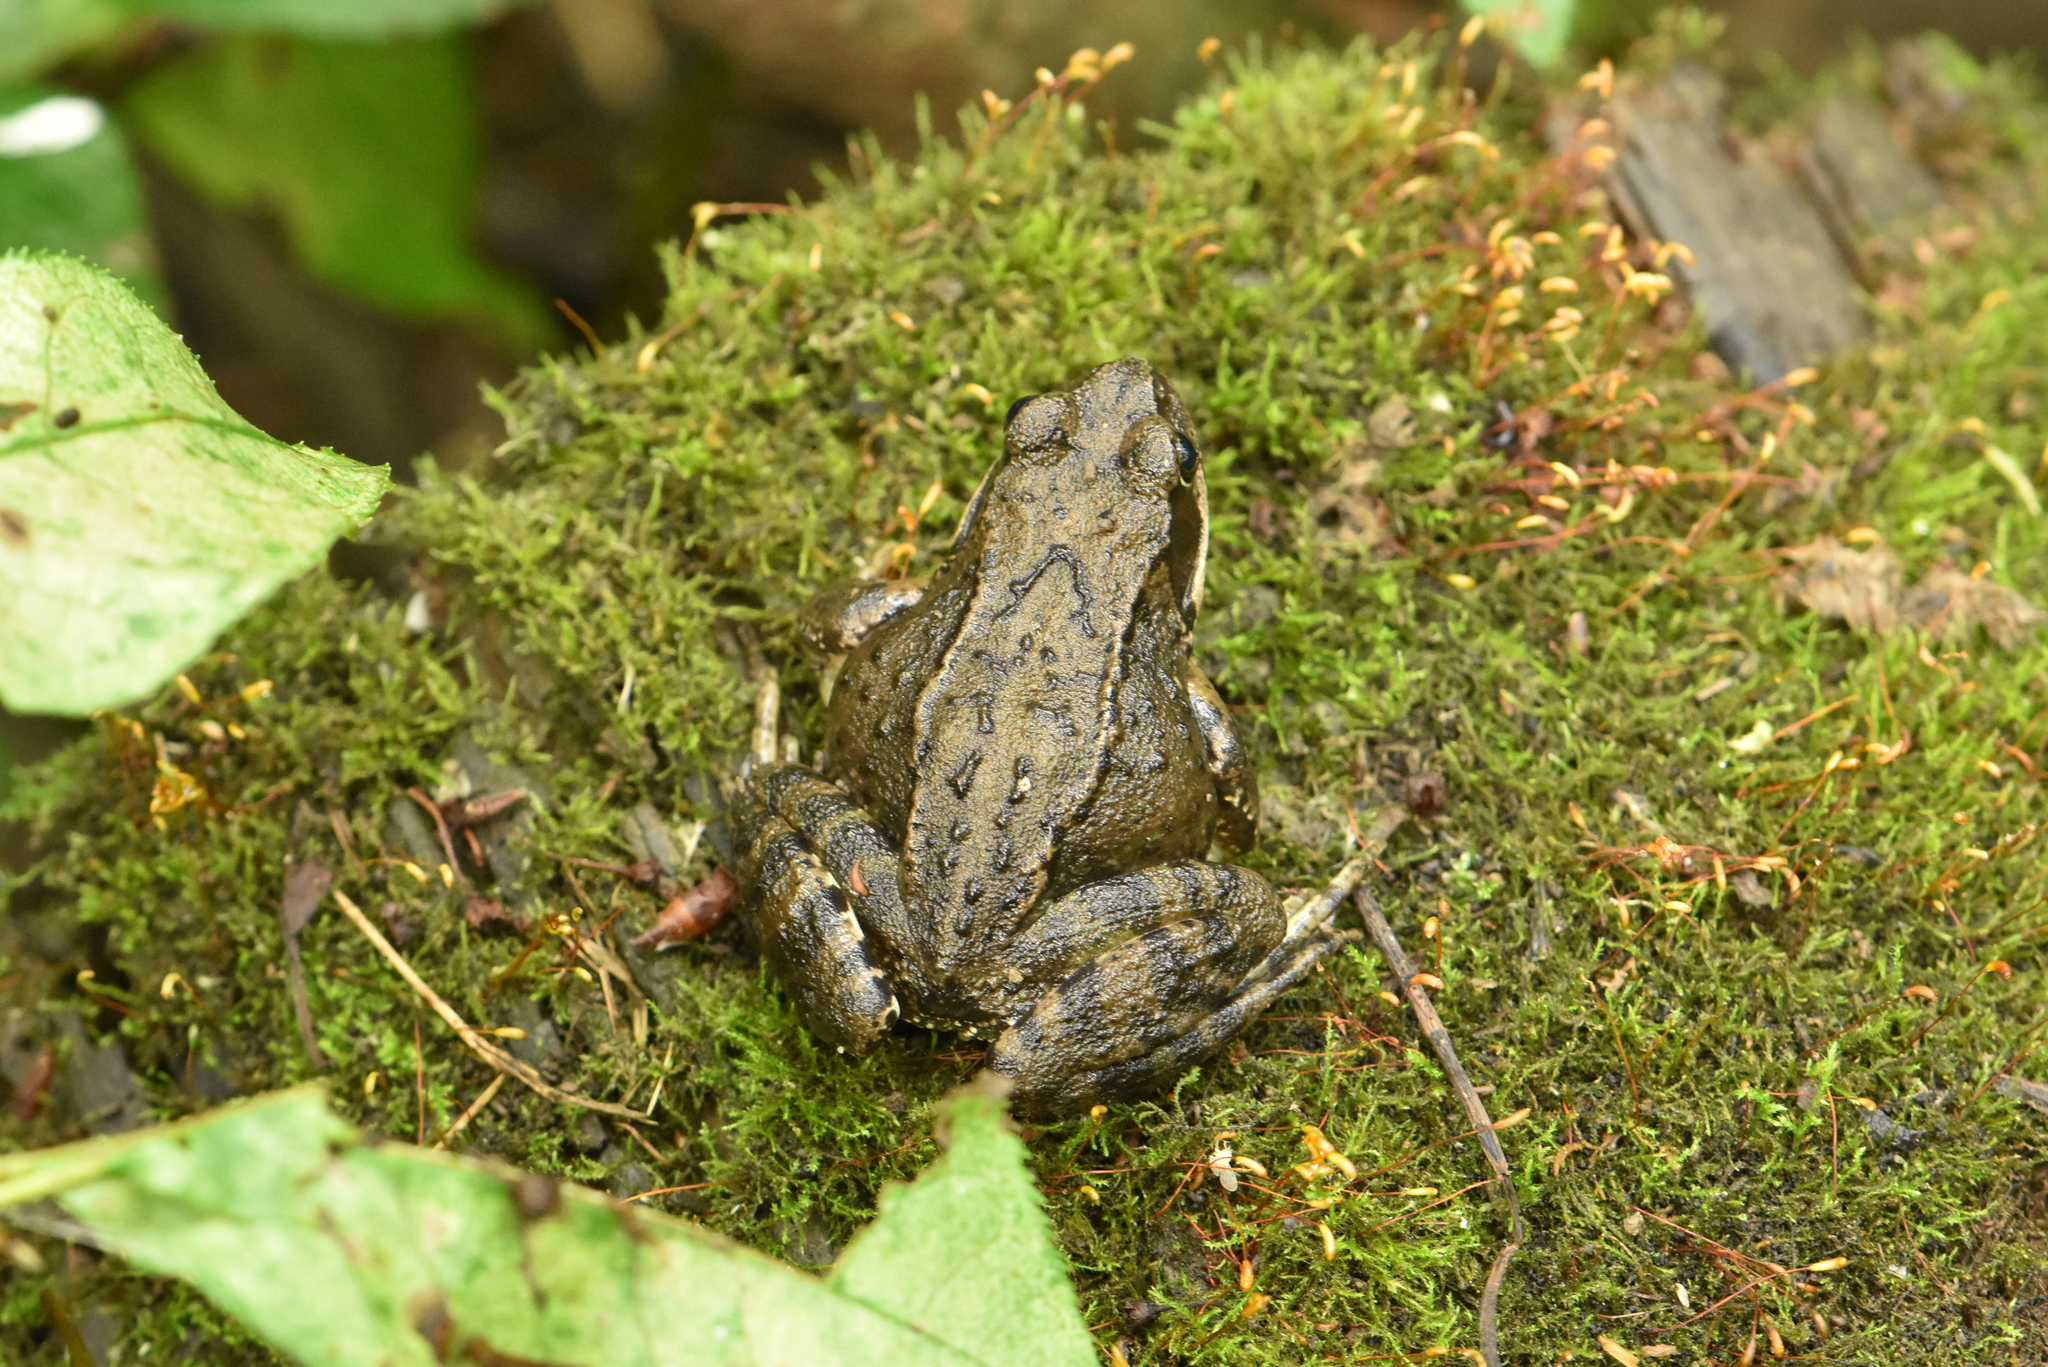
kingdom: Animalia
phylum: Chordata
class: Amphibia
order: Anura
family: Ranidae
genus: Rana
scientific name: Rana temporaria
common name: Common frog
